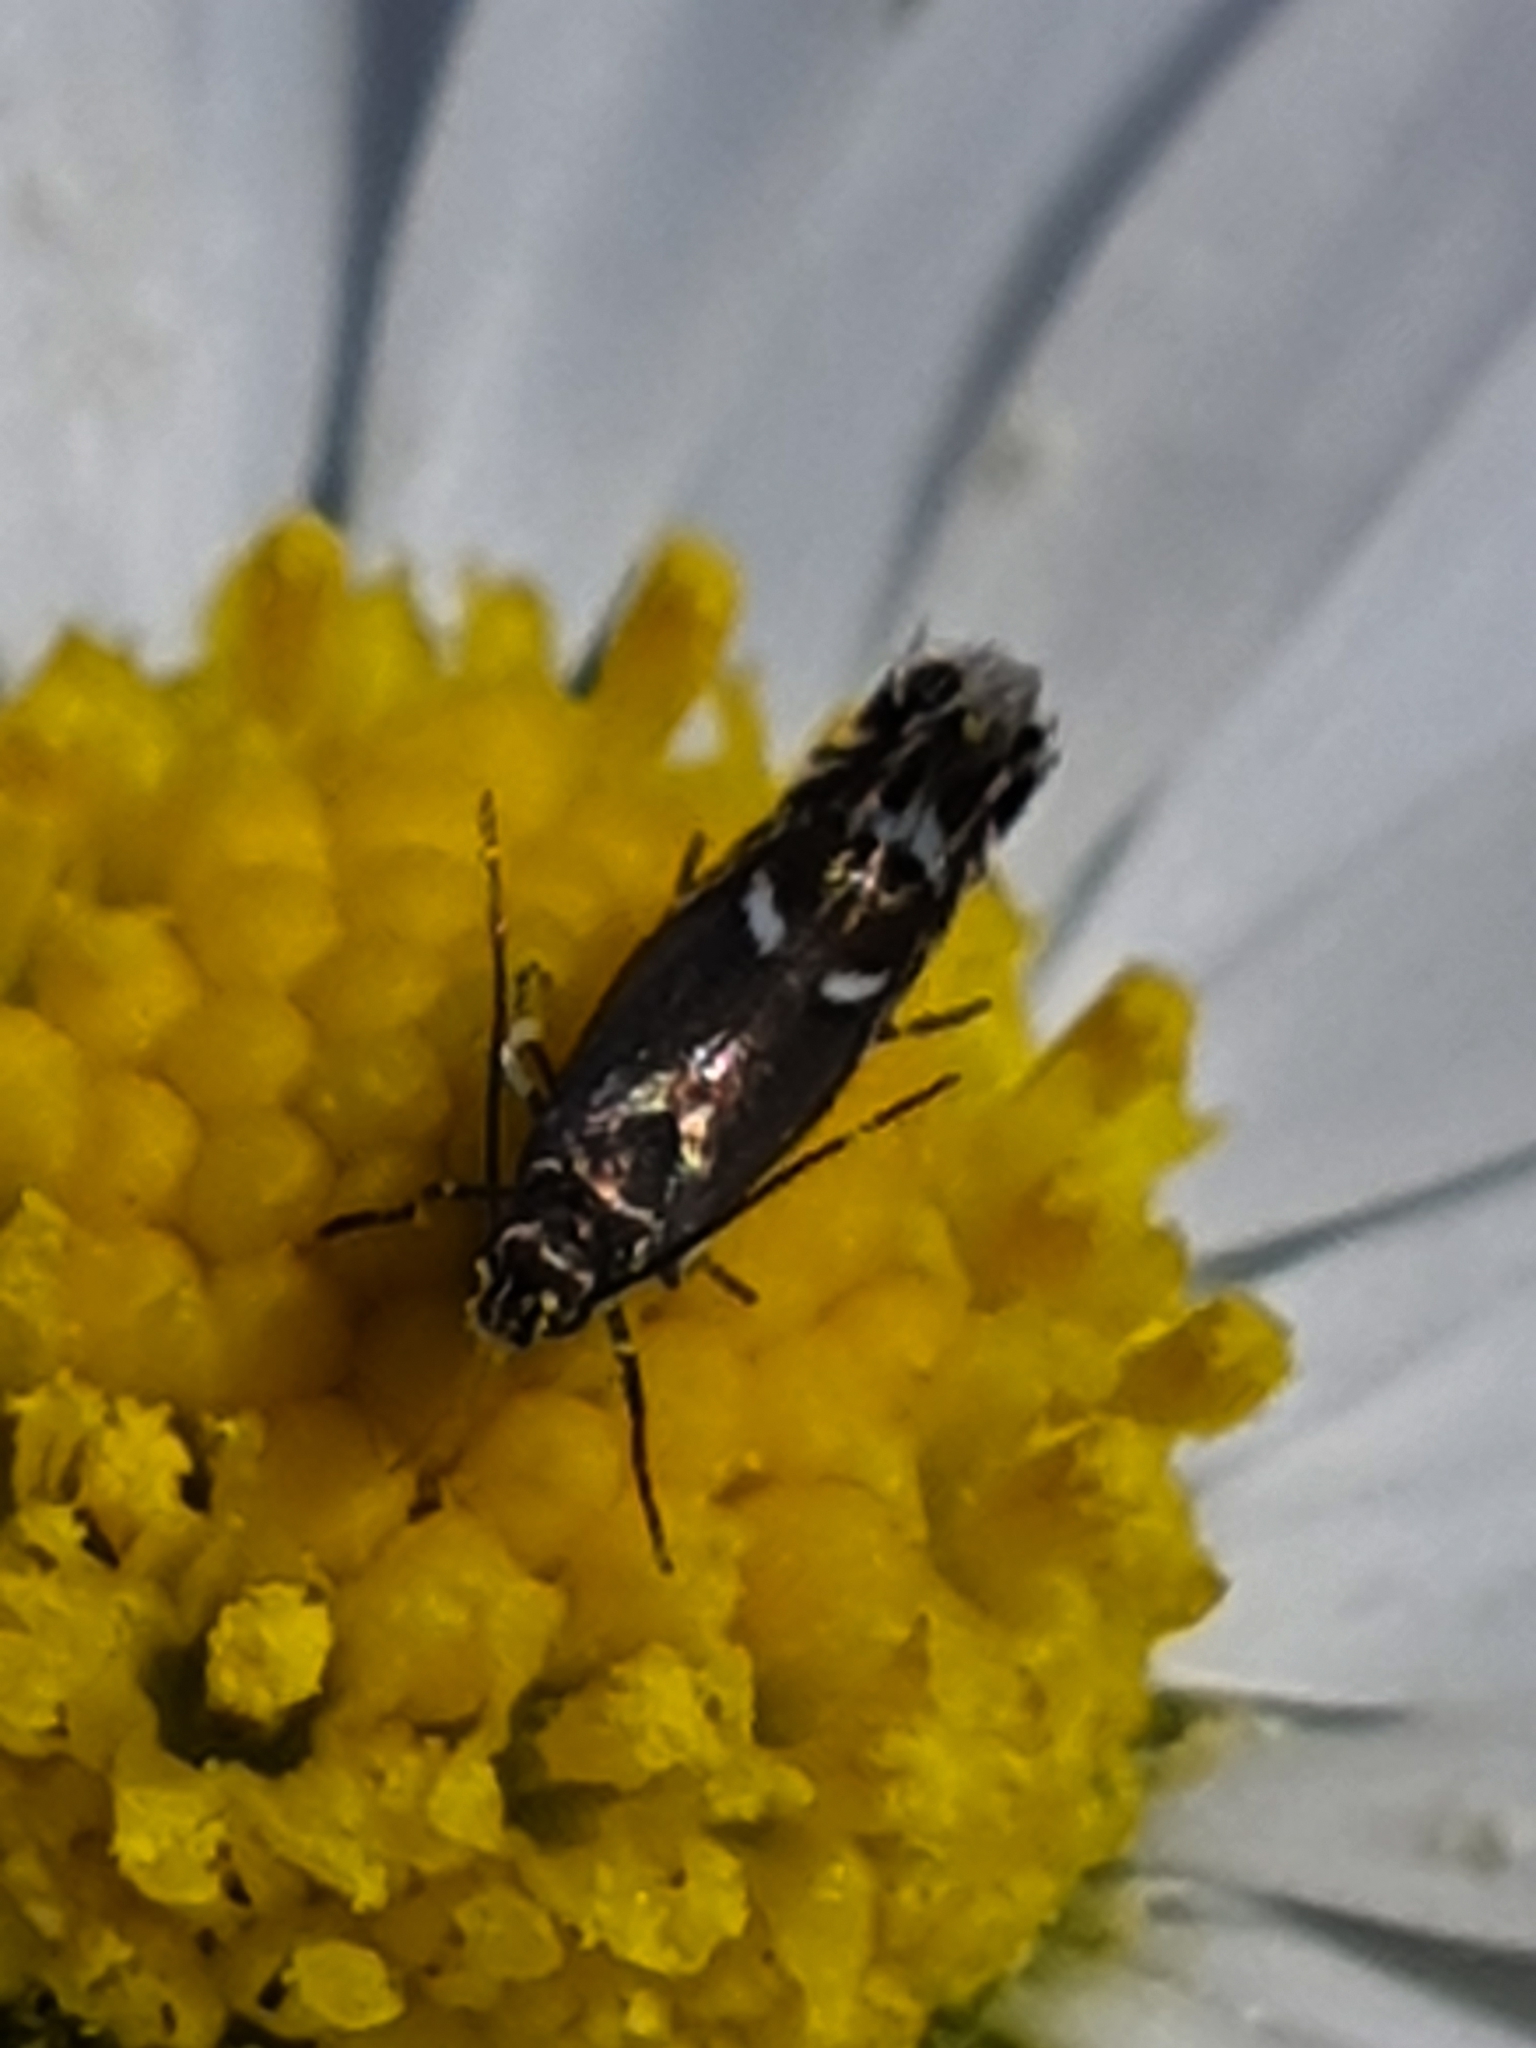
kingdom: Animalia
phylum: Arthropoda
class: Insecta
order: Lepidoptera
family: Glyphipterigidae
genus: Glyphipterix
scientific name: Glyphipterix simpliciella
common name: Cocksfoot moth
